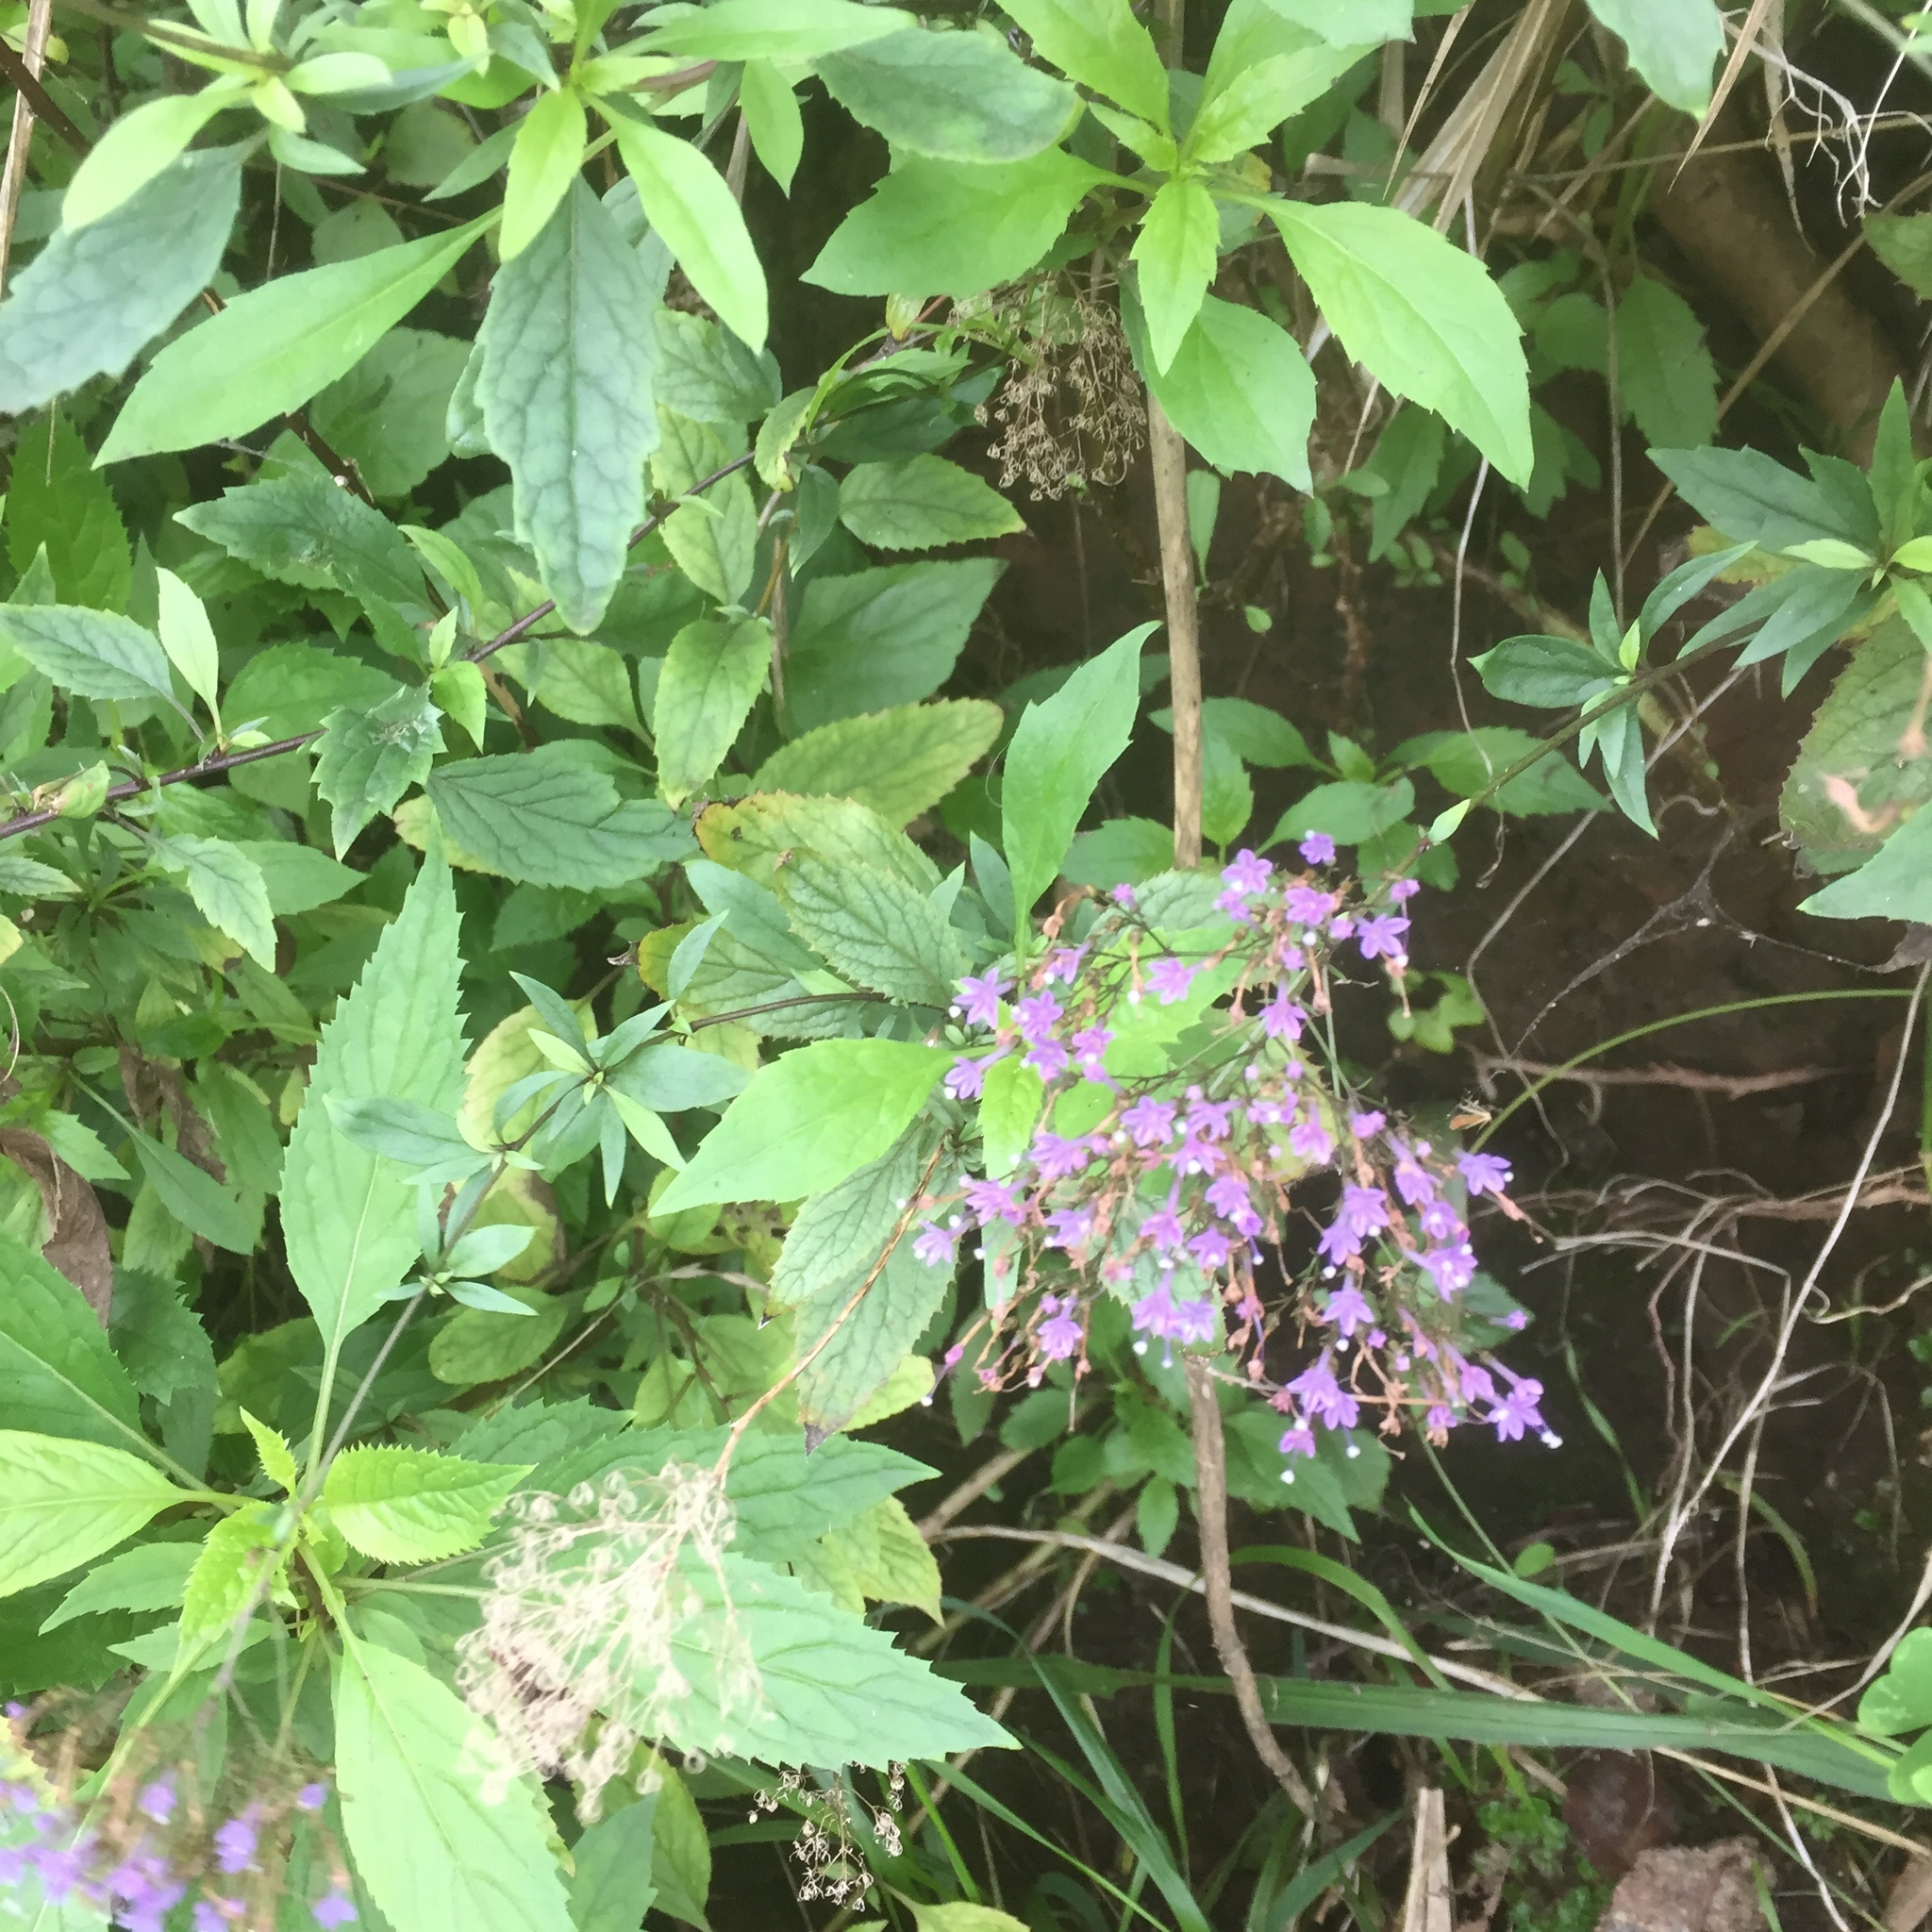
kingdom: Plantae
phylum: Tracheophyta
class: Magnoliopsida
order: Asterales
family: Campanulaceae
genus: Trachelium
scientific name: Trachelium caeruleum
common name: Throatwort
